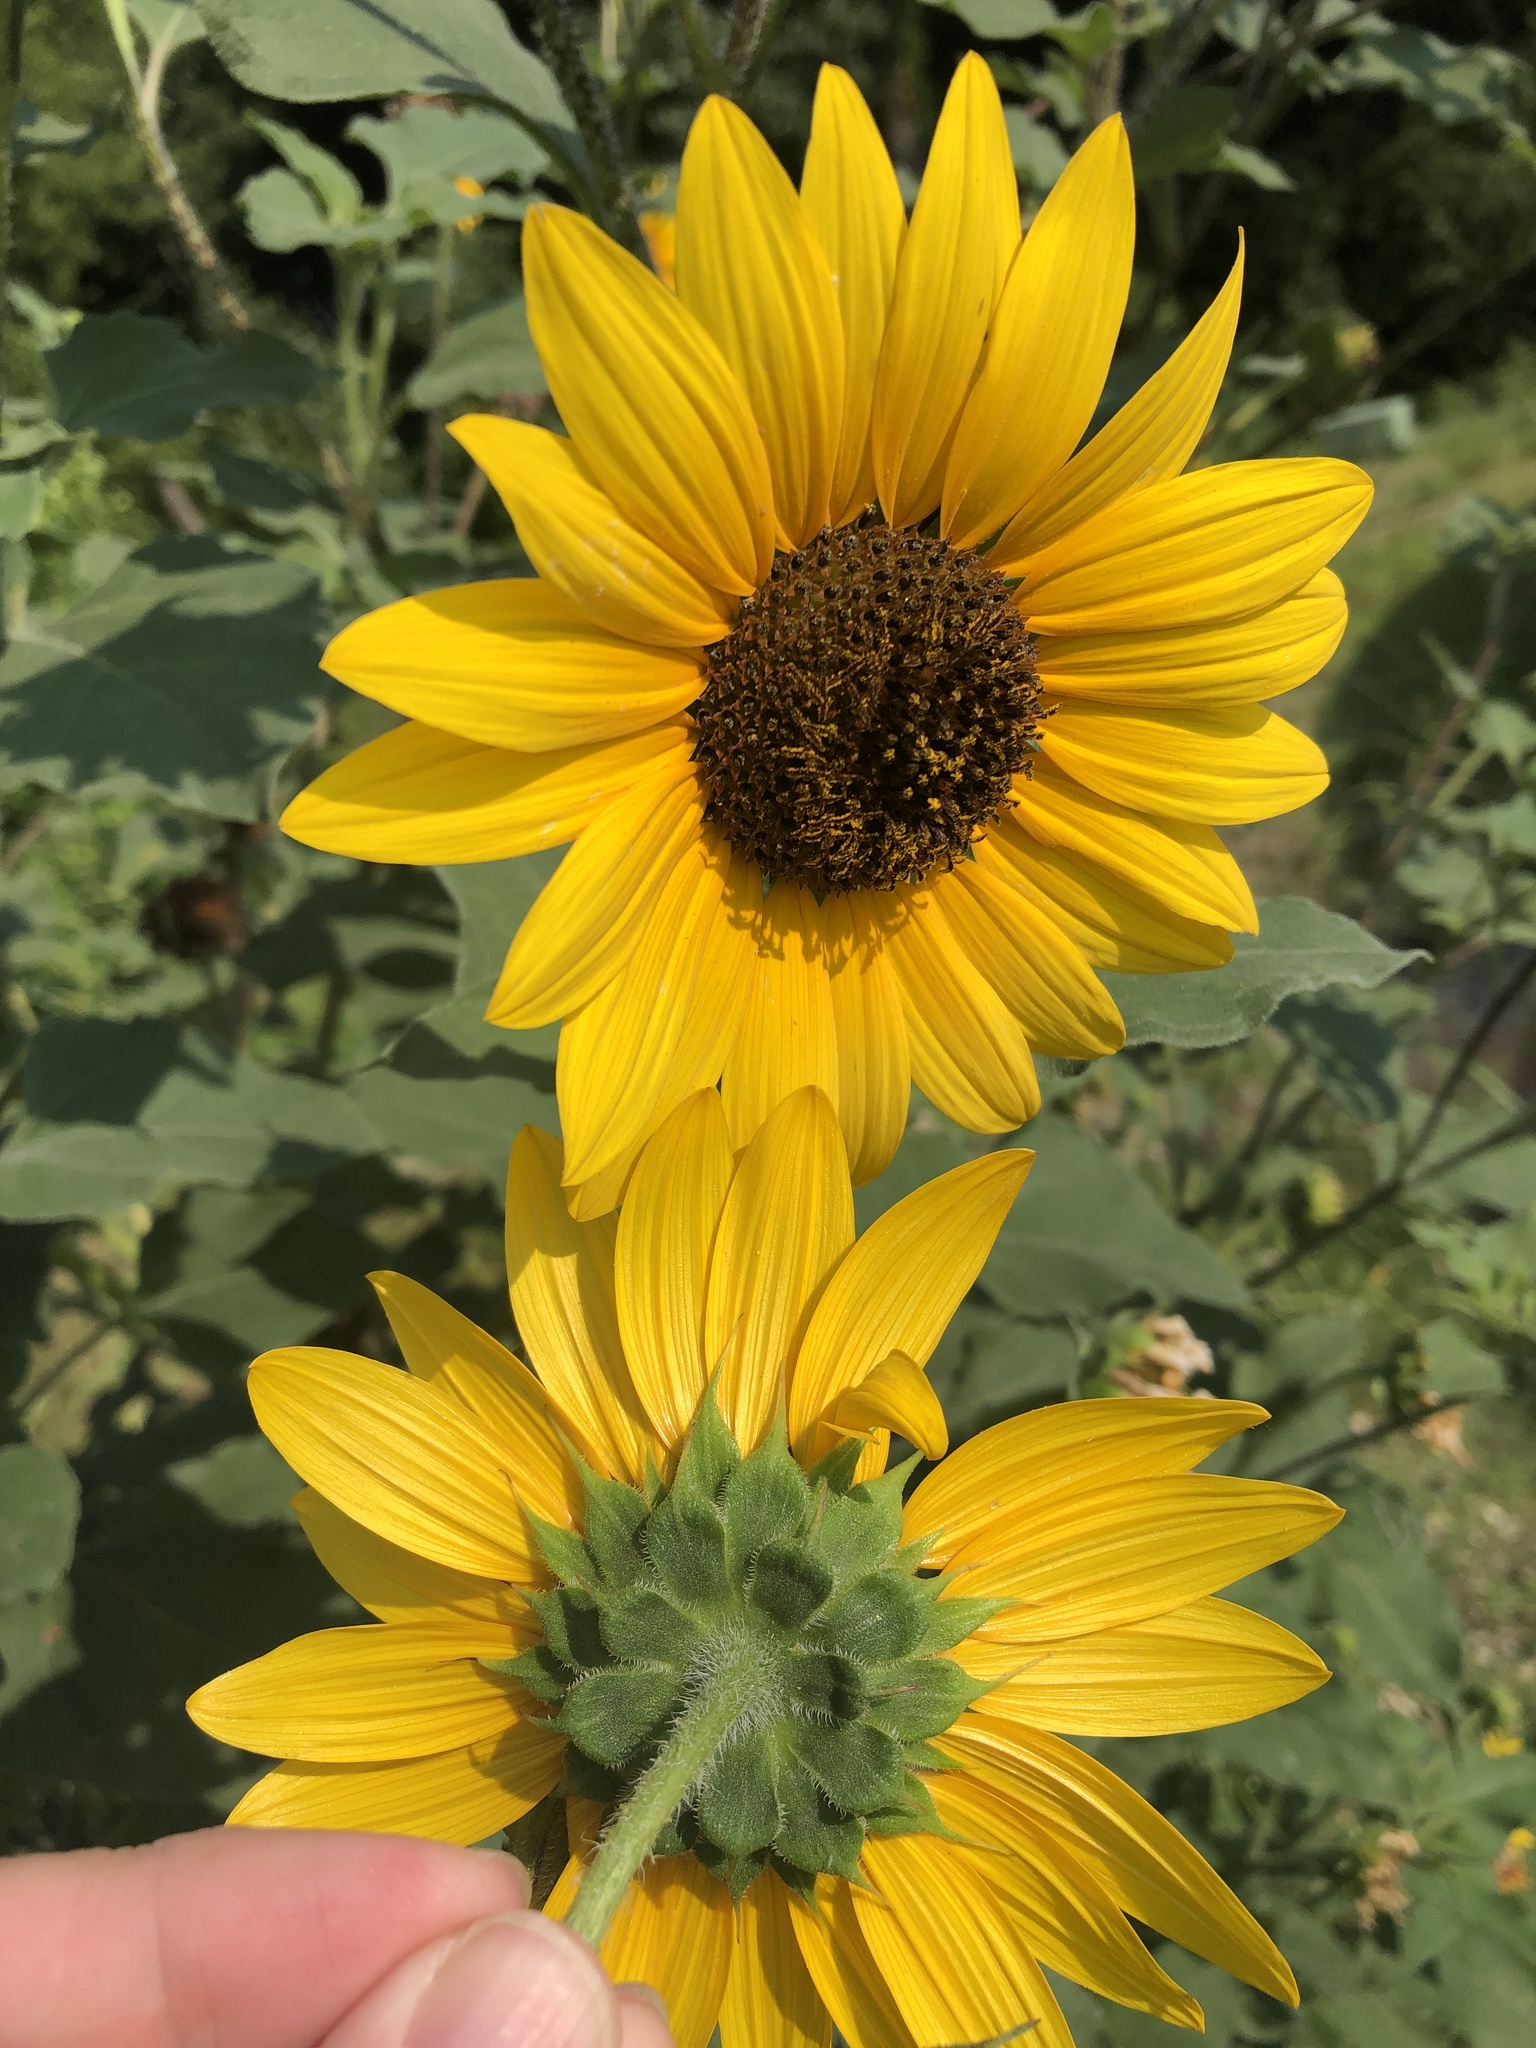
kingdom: Plantae
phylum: Tracheophyta
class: Magnoliopsida
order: Asterales
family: Asteraceae
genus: Helianthus
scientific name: Helianthus annuus
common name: Sunflower
